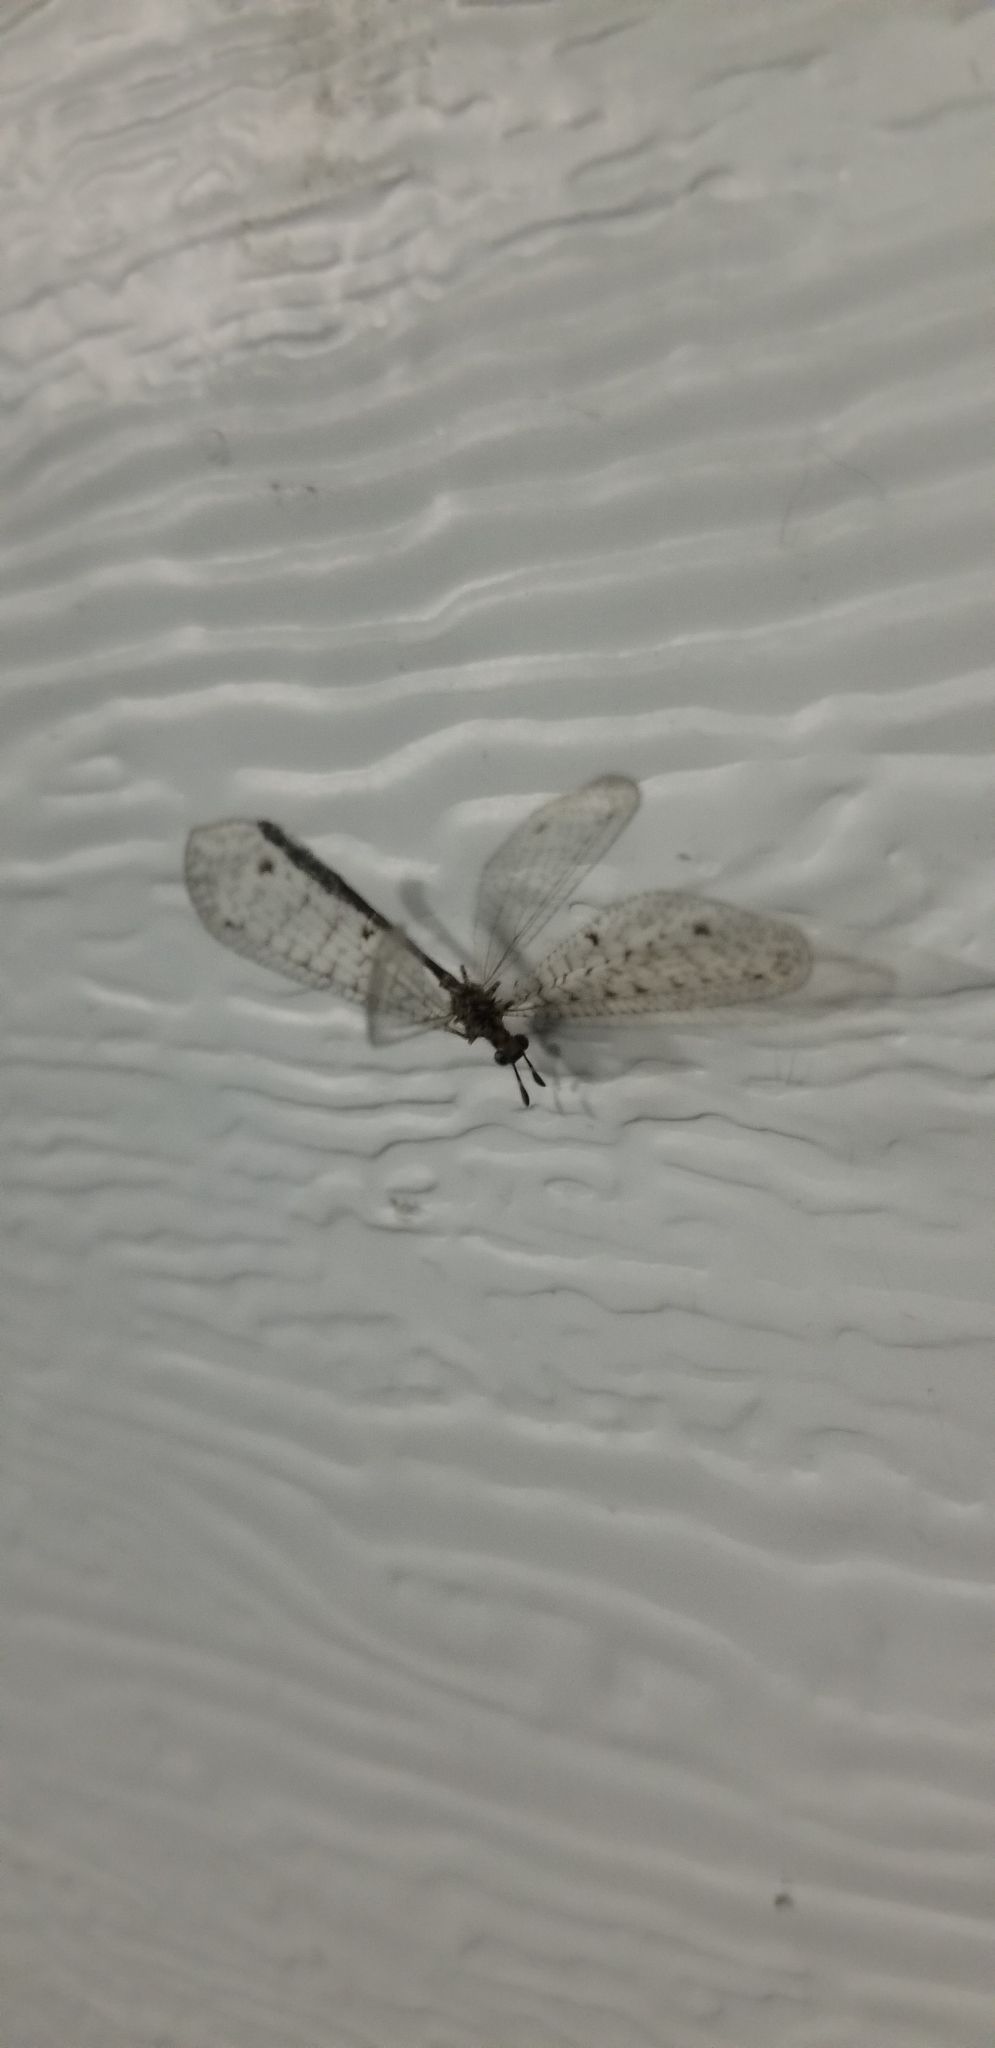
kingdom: Animalia
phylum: Arthropoda
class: Insecta
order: Neuroptera
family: Myrmeleontidae
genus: Menkeleon
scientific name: Menkeleon bellulus
